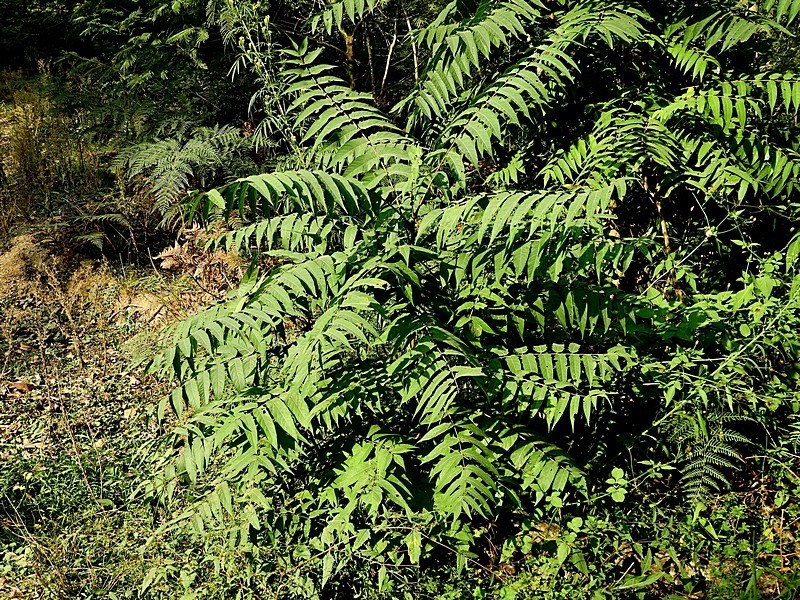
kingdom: Plantae
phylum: Tracheophyta
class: Magnoliopsida
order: Sapindales
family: Simaroubaceae
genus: Ailanthus
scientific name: Ailanthus altissima
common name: Tree-of-heaven
